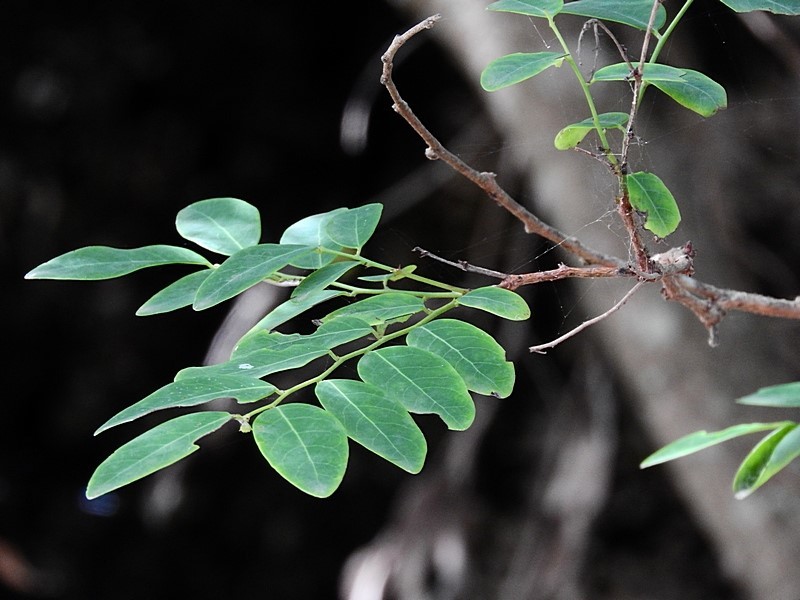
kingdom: Plantae
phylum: Tracheophyta
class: Magnoliopsida
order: Malpighiales
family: Phyllanthaceae
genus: Breynia
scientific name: Breynia oblongifolia
